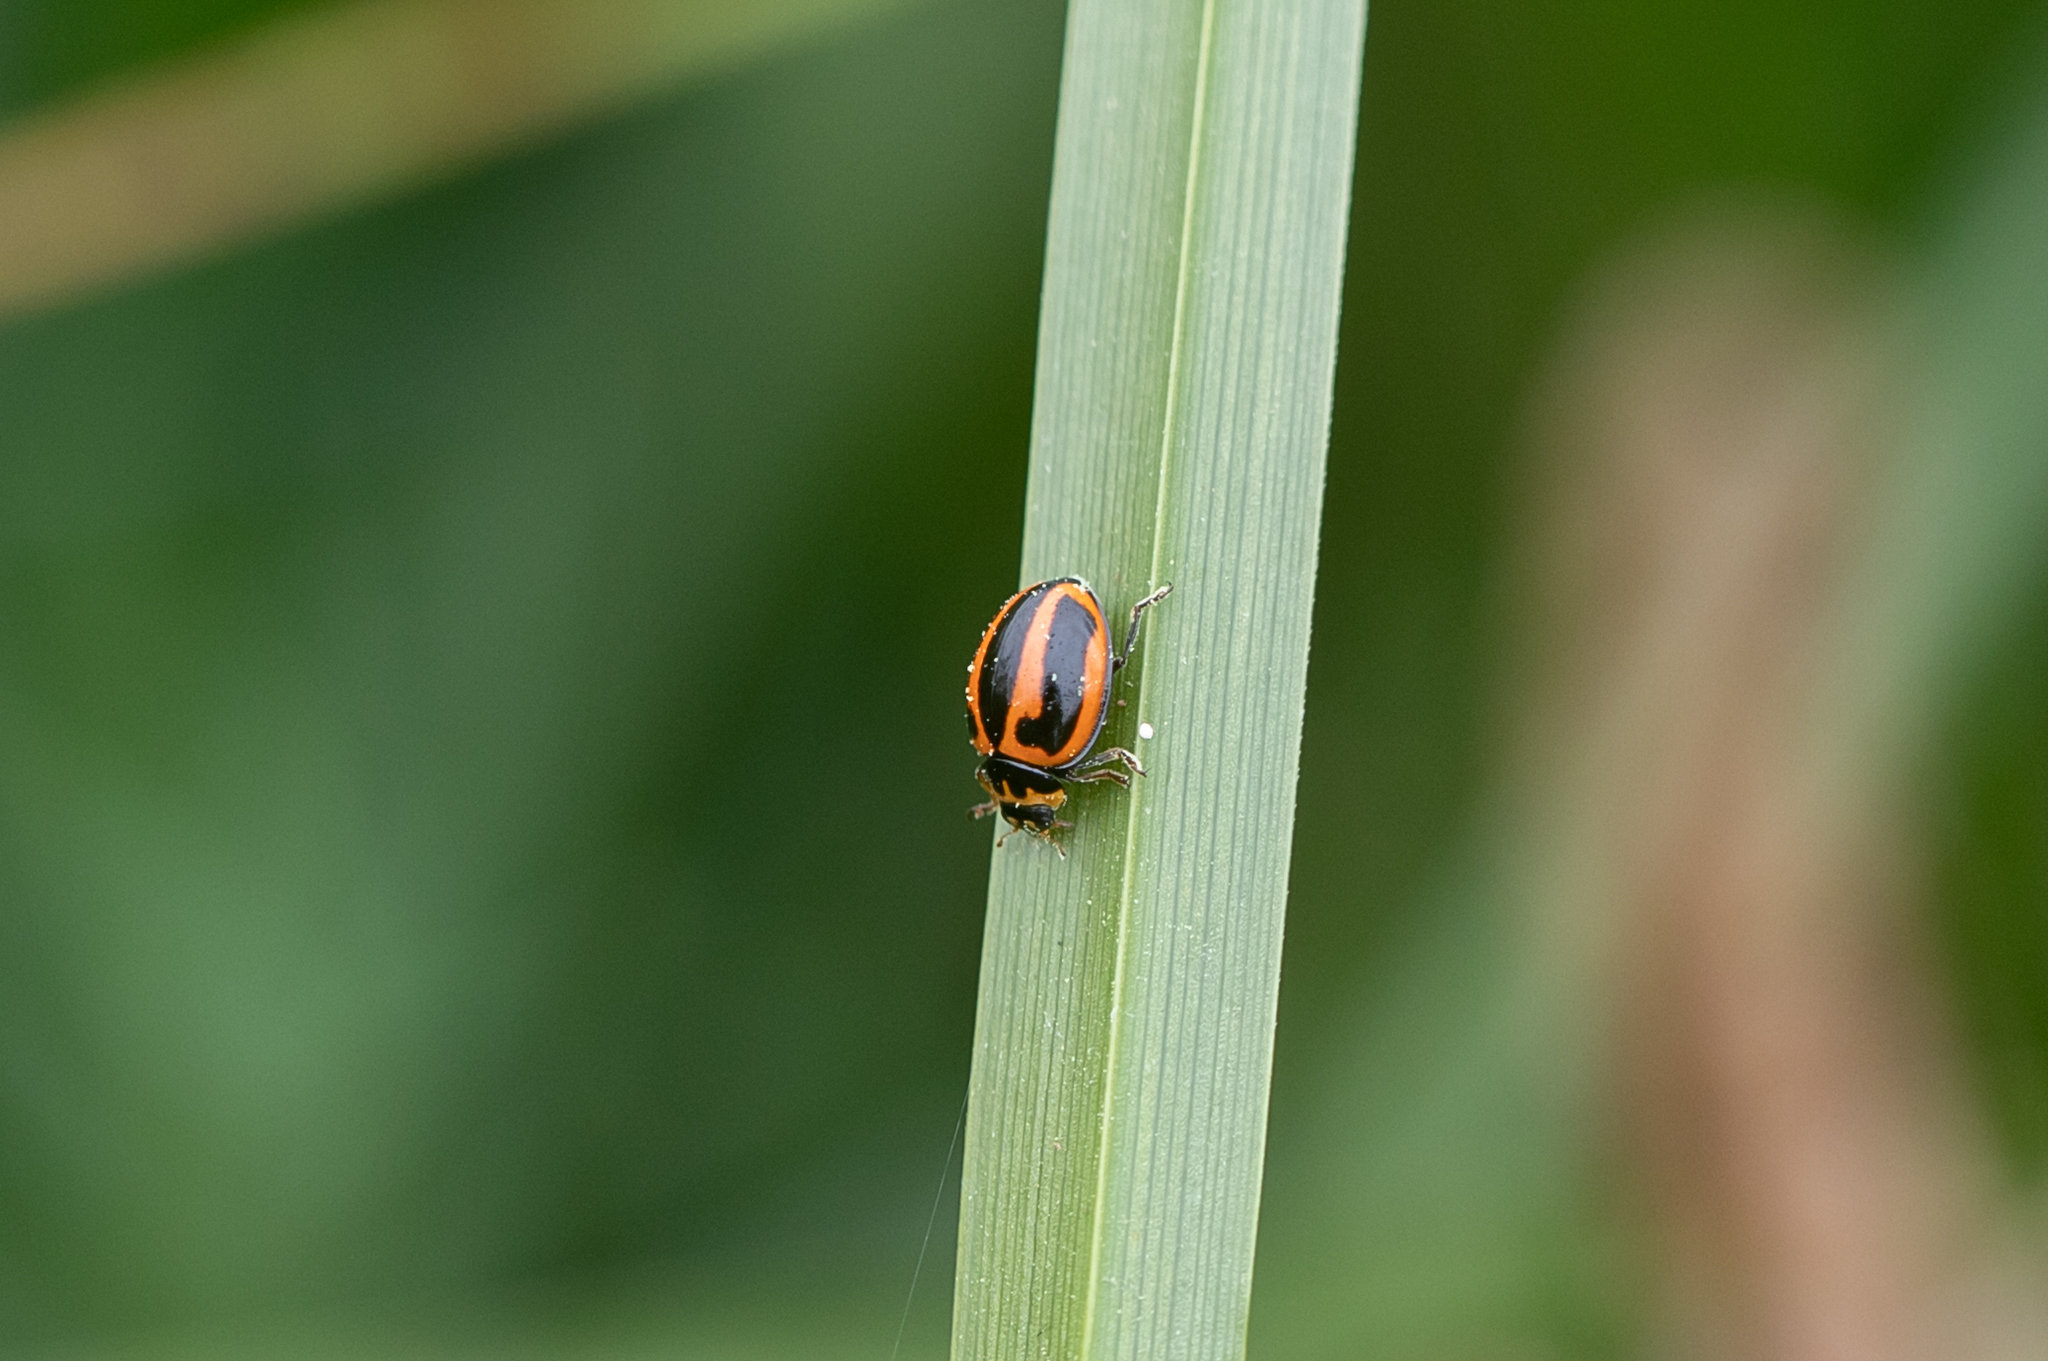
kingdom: Animalia
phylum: Arthropoda
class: Insecta
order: Coleoptera
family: Coccinellidae
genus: Micraspis
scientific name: Micraspis frenata
